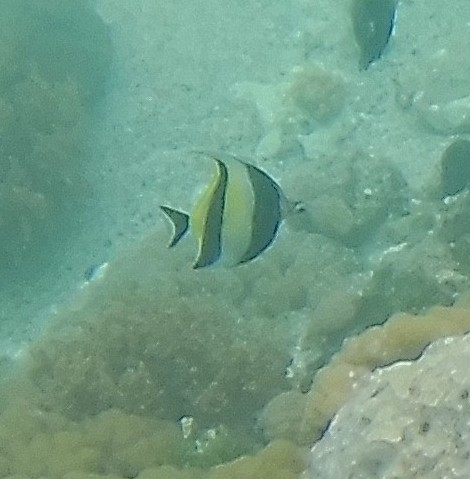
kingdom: Animalia
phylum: Chordata
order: Perciformes
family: Zanclidae
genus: Zanclus
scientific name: Zanclus cornutus
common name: Moorish idol
